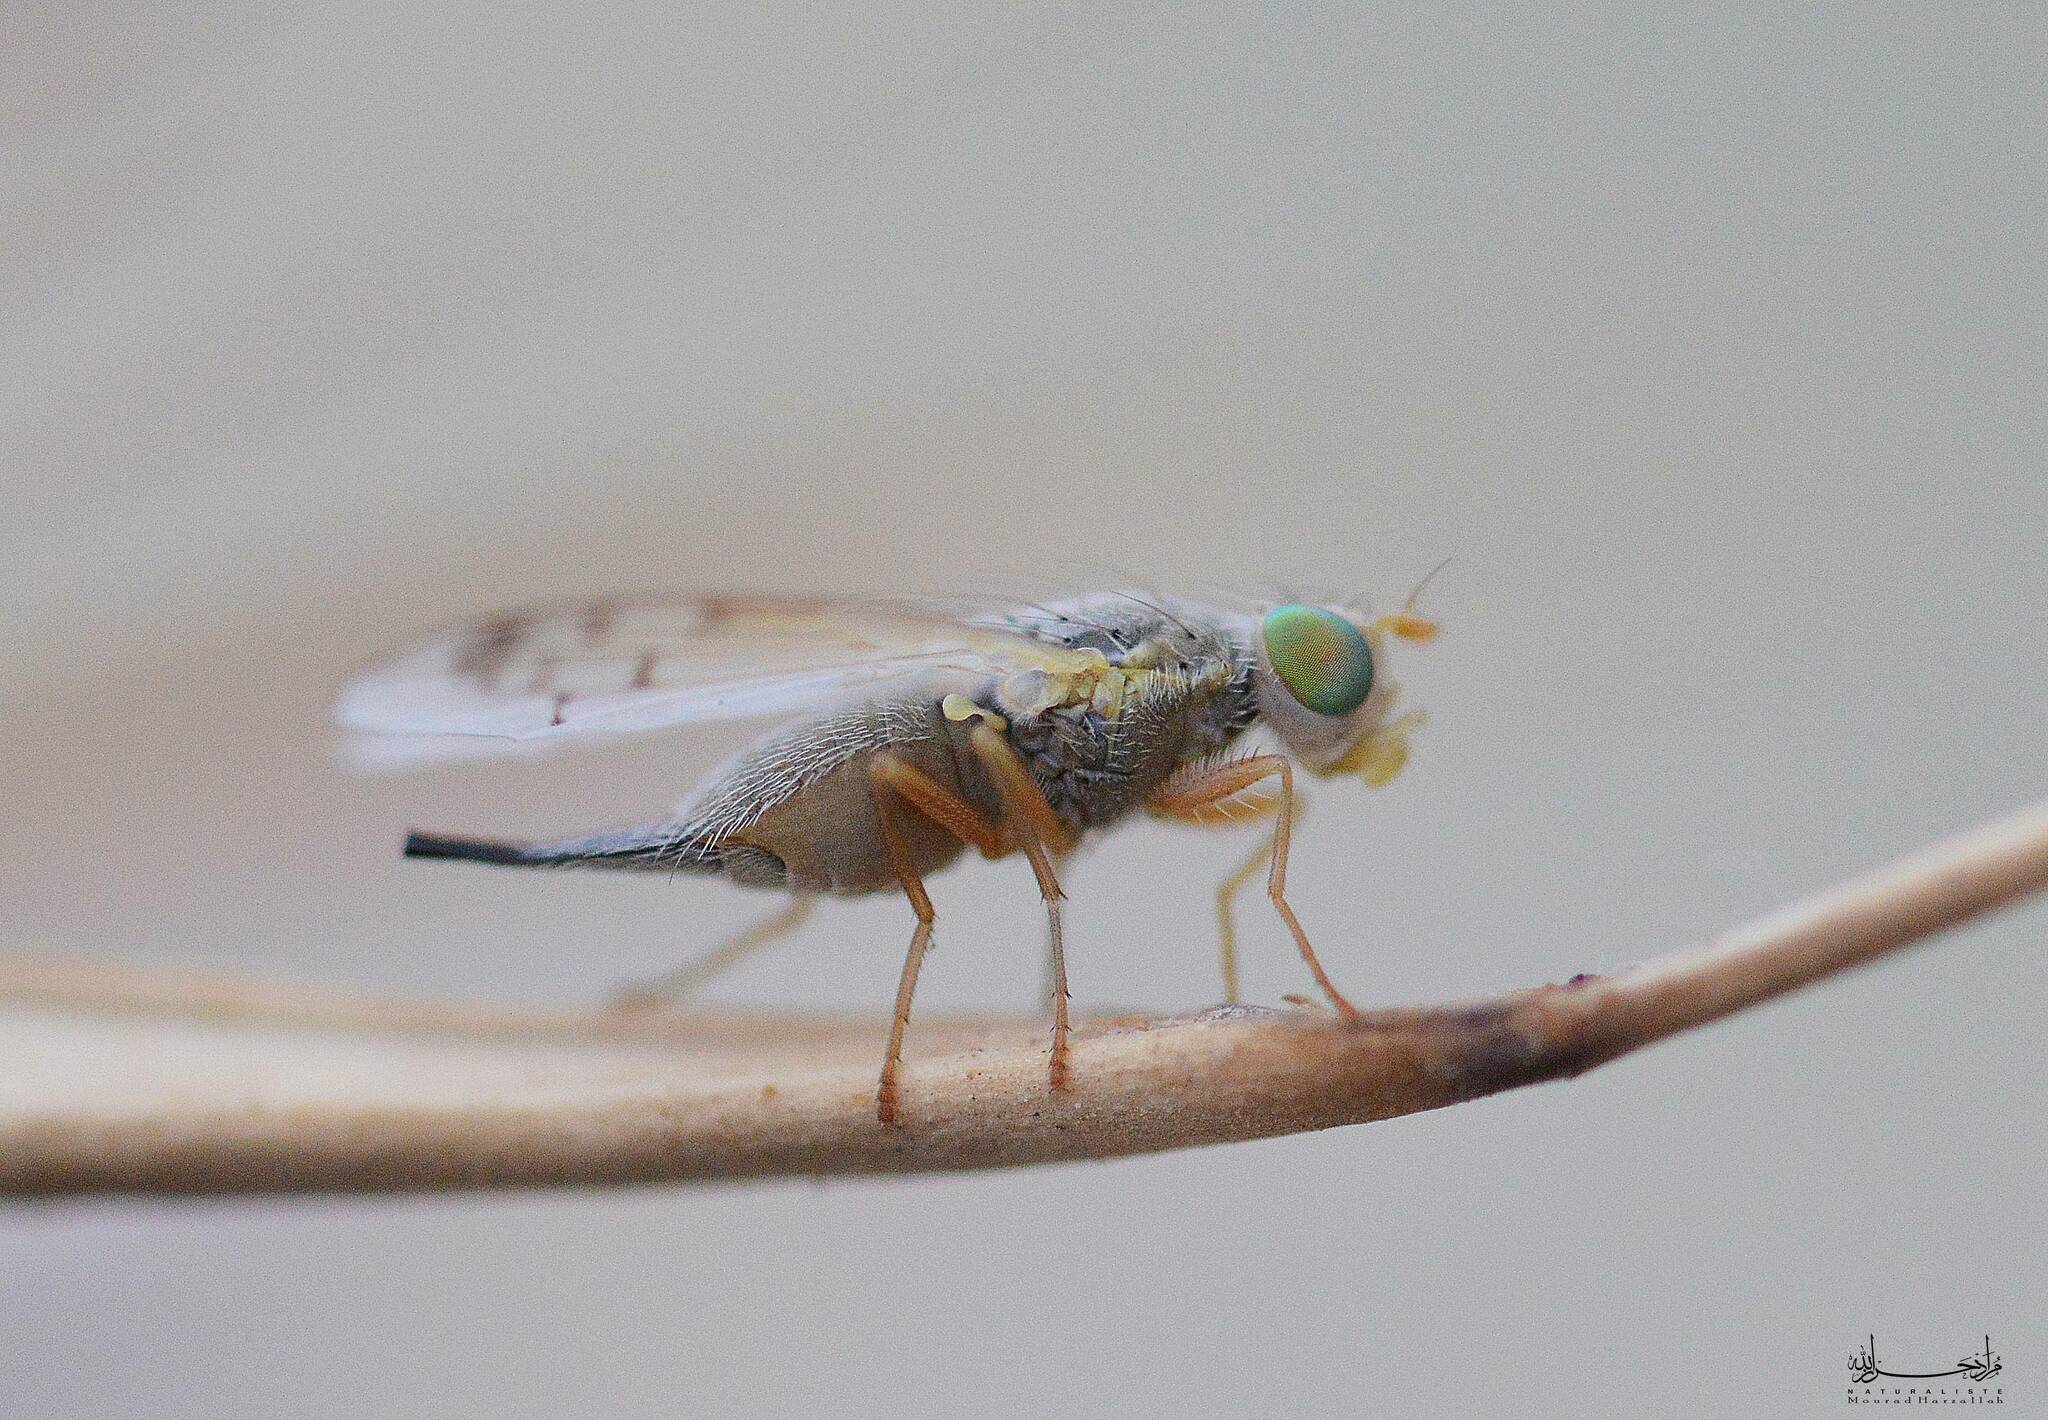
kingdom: Animalia
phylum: Arthropoda
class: Insecta
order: Diptera
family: Tephritidae
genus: Acanthiophilus
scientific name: Acanthiophilus helianthi
